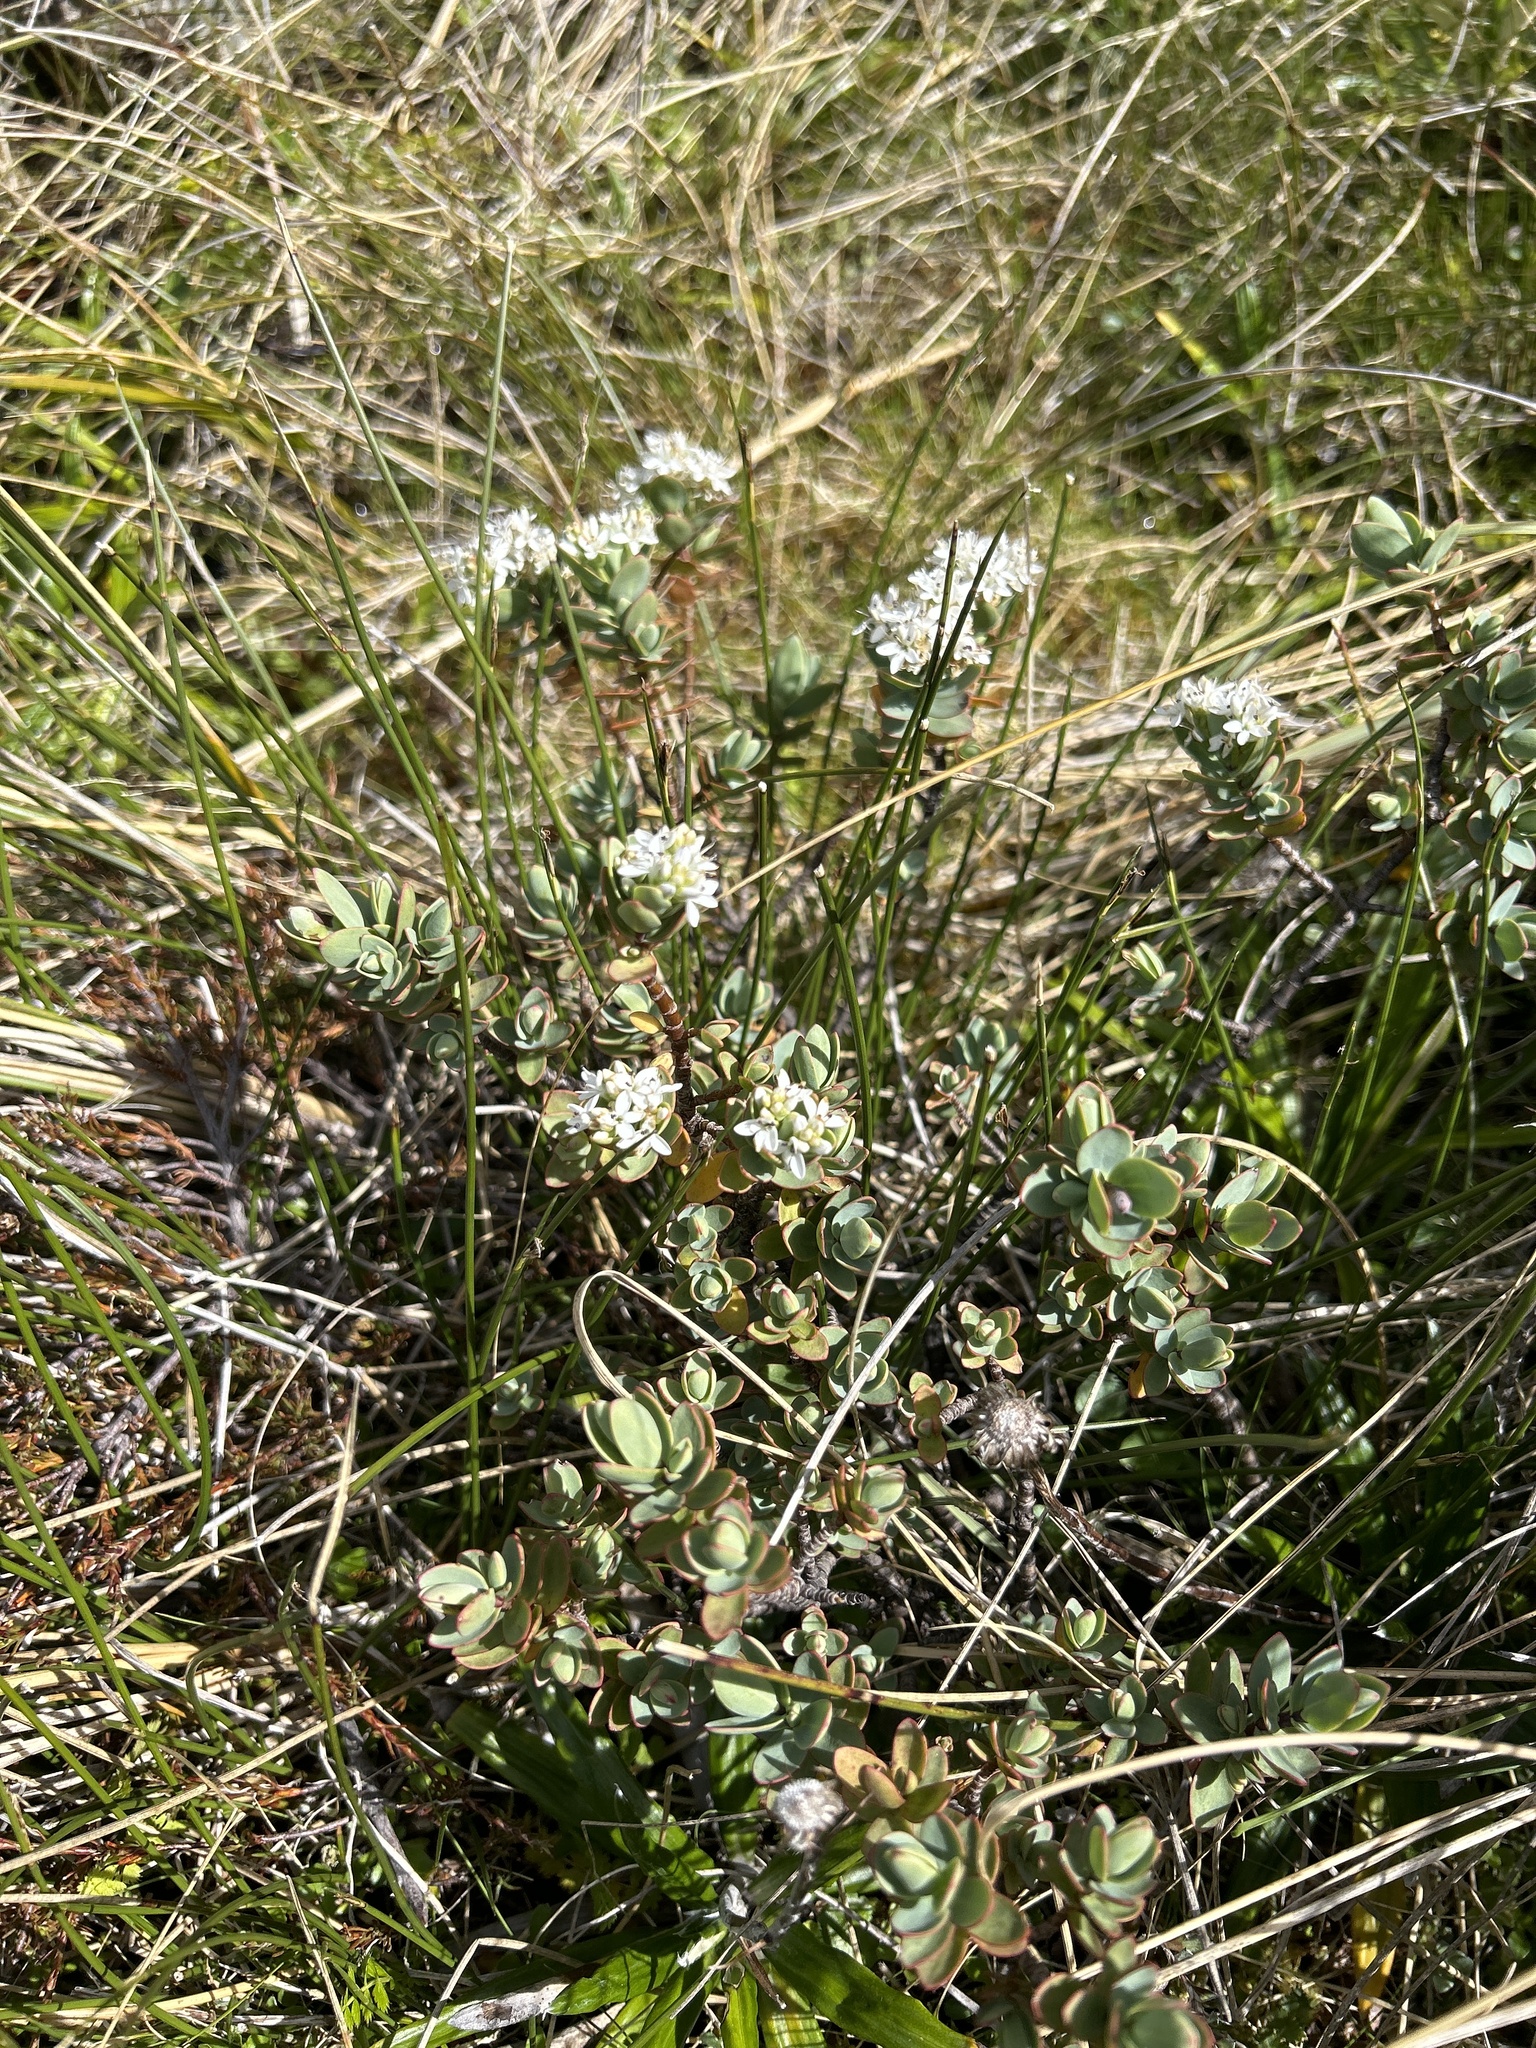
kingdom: Plantae
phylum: Tracheophyta
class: Magnoliopsida
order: Lamiales
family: Plantaginaceae
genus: Veronica
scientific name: Veronica pinguifolia
